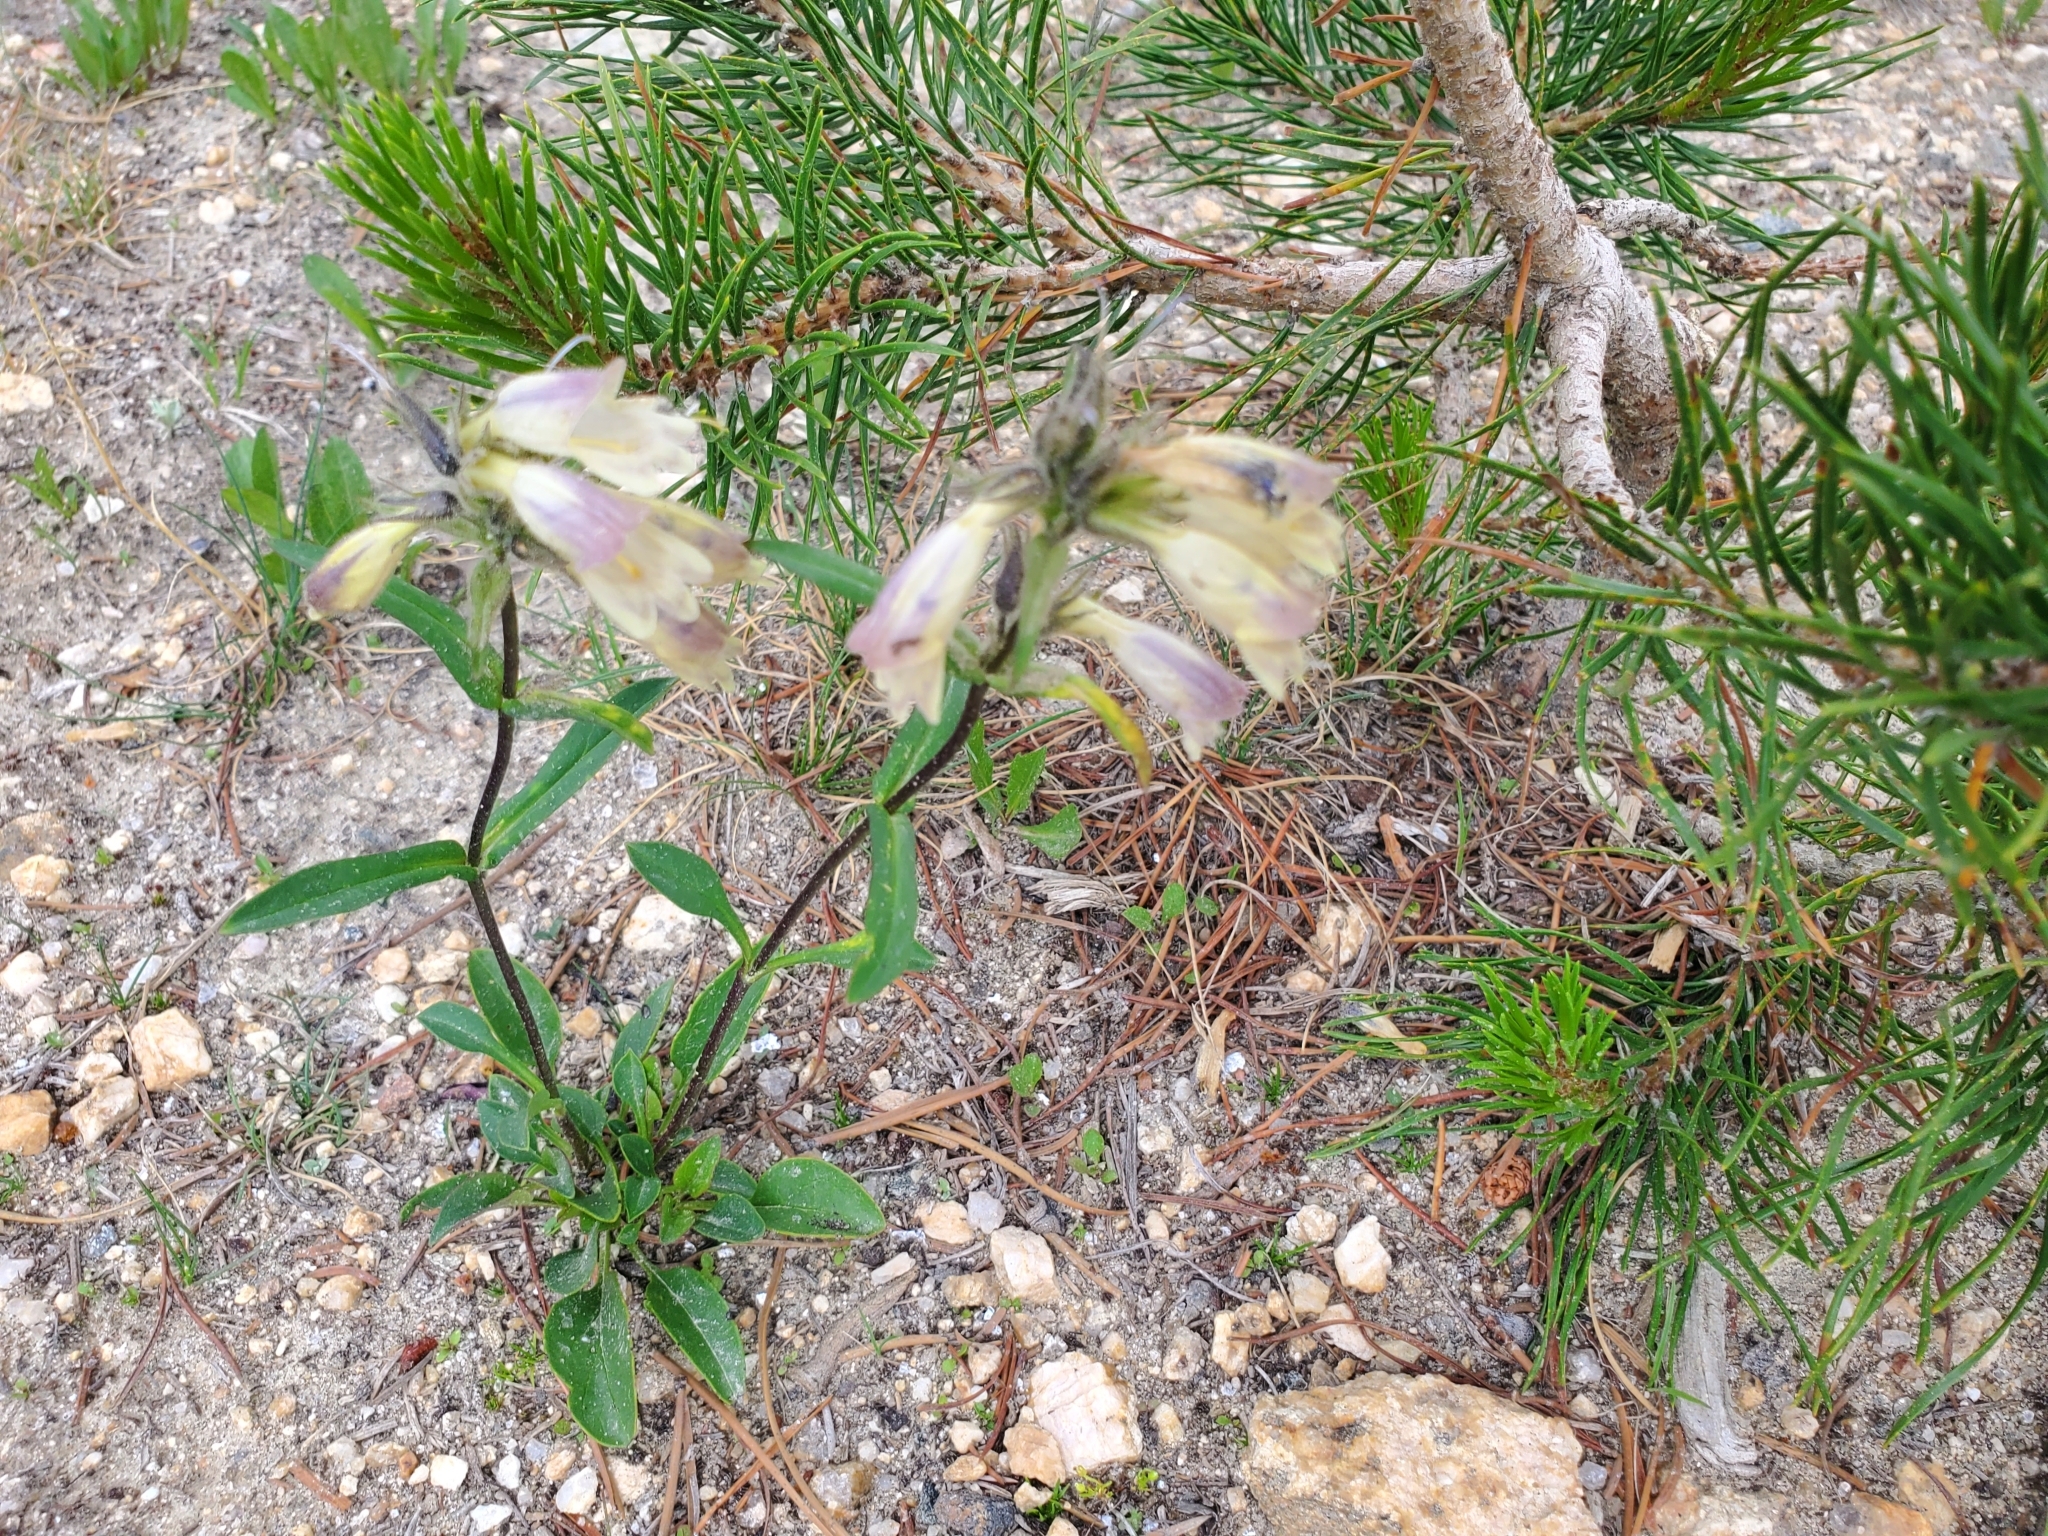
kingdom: Plantae
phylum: Tracheophyta
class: Magnoliopsida
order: Lamiales
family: Plantaginaceae
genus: Penstemon
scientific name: Penstemon whippleanus
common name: Whipple's penstemon
